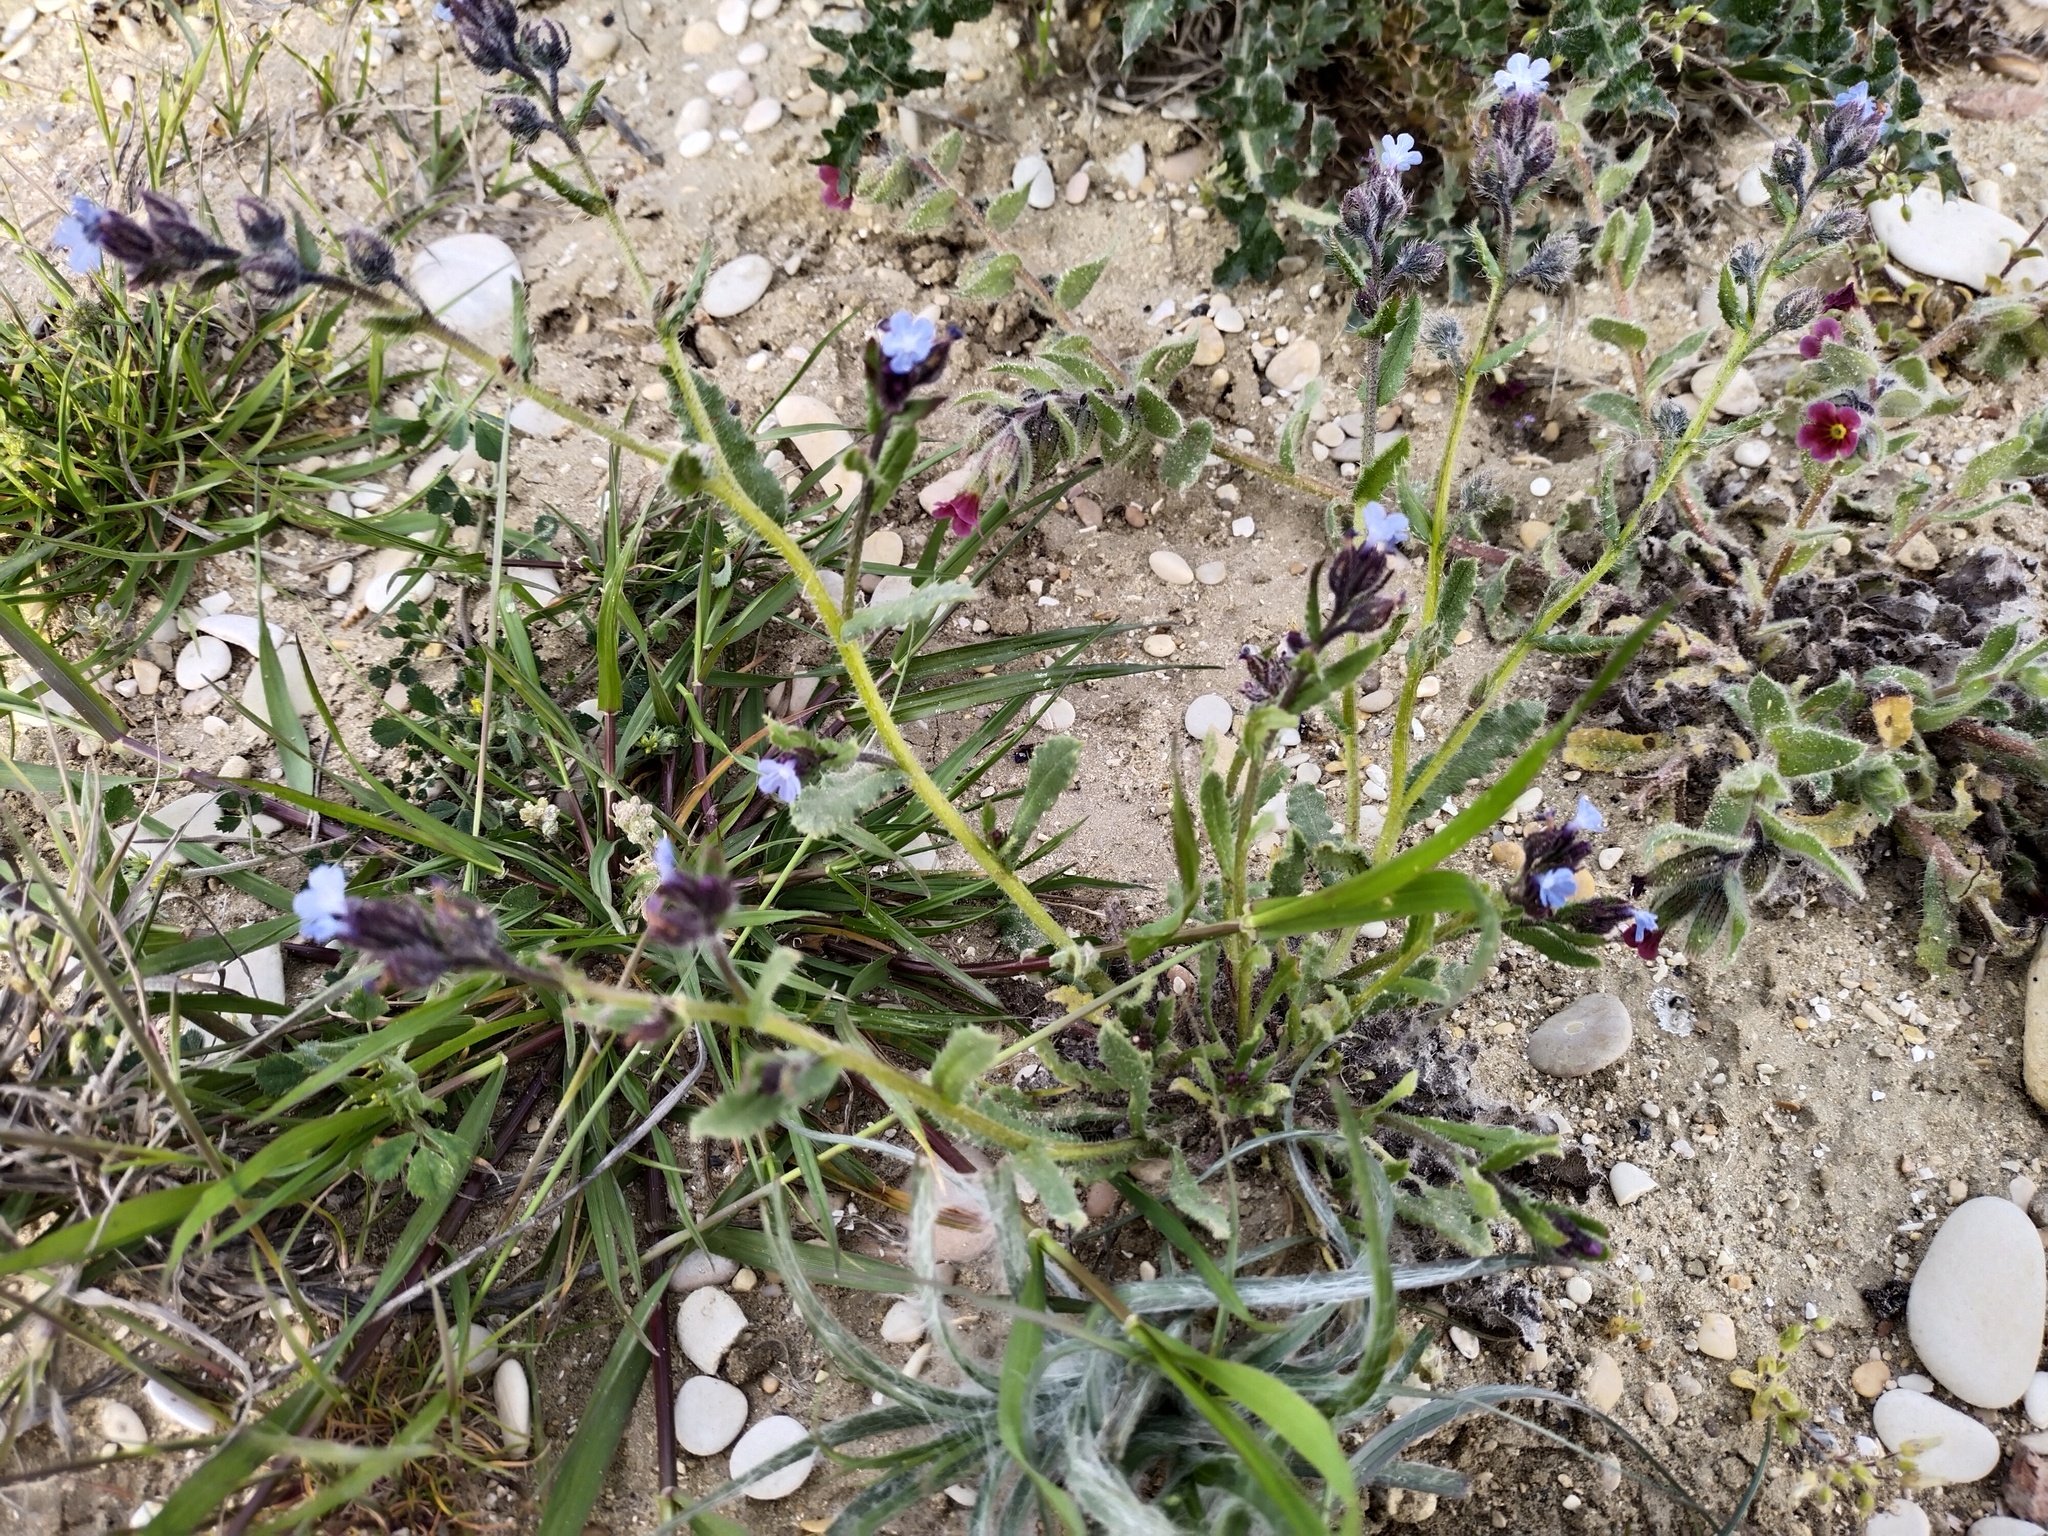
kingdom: Plantae
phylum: Tracheophyta
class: Magnoliopsida
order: Boraginales
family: Boraginaceae
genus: Lycopsis
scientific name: Lycopsis arvensis
